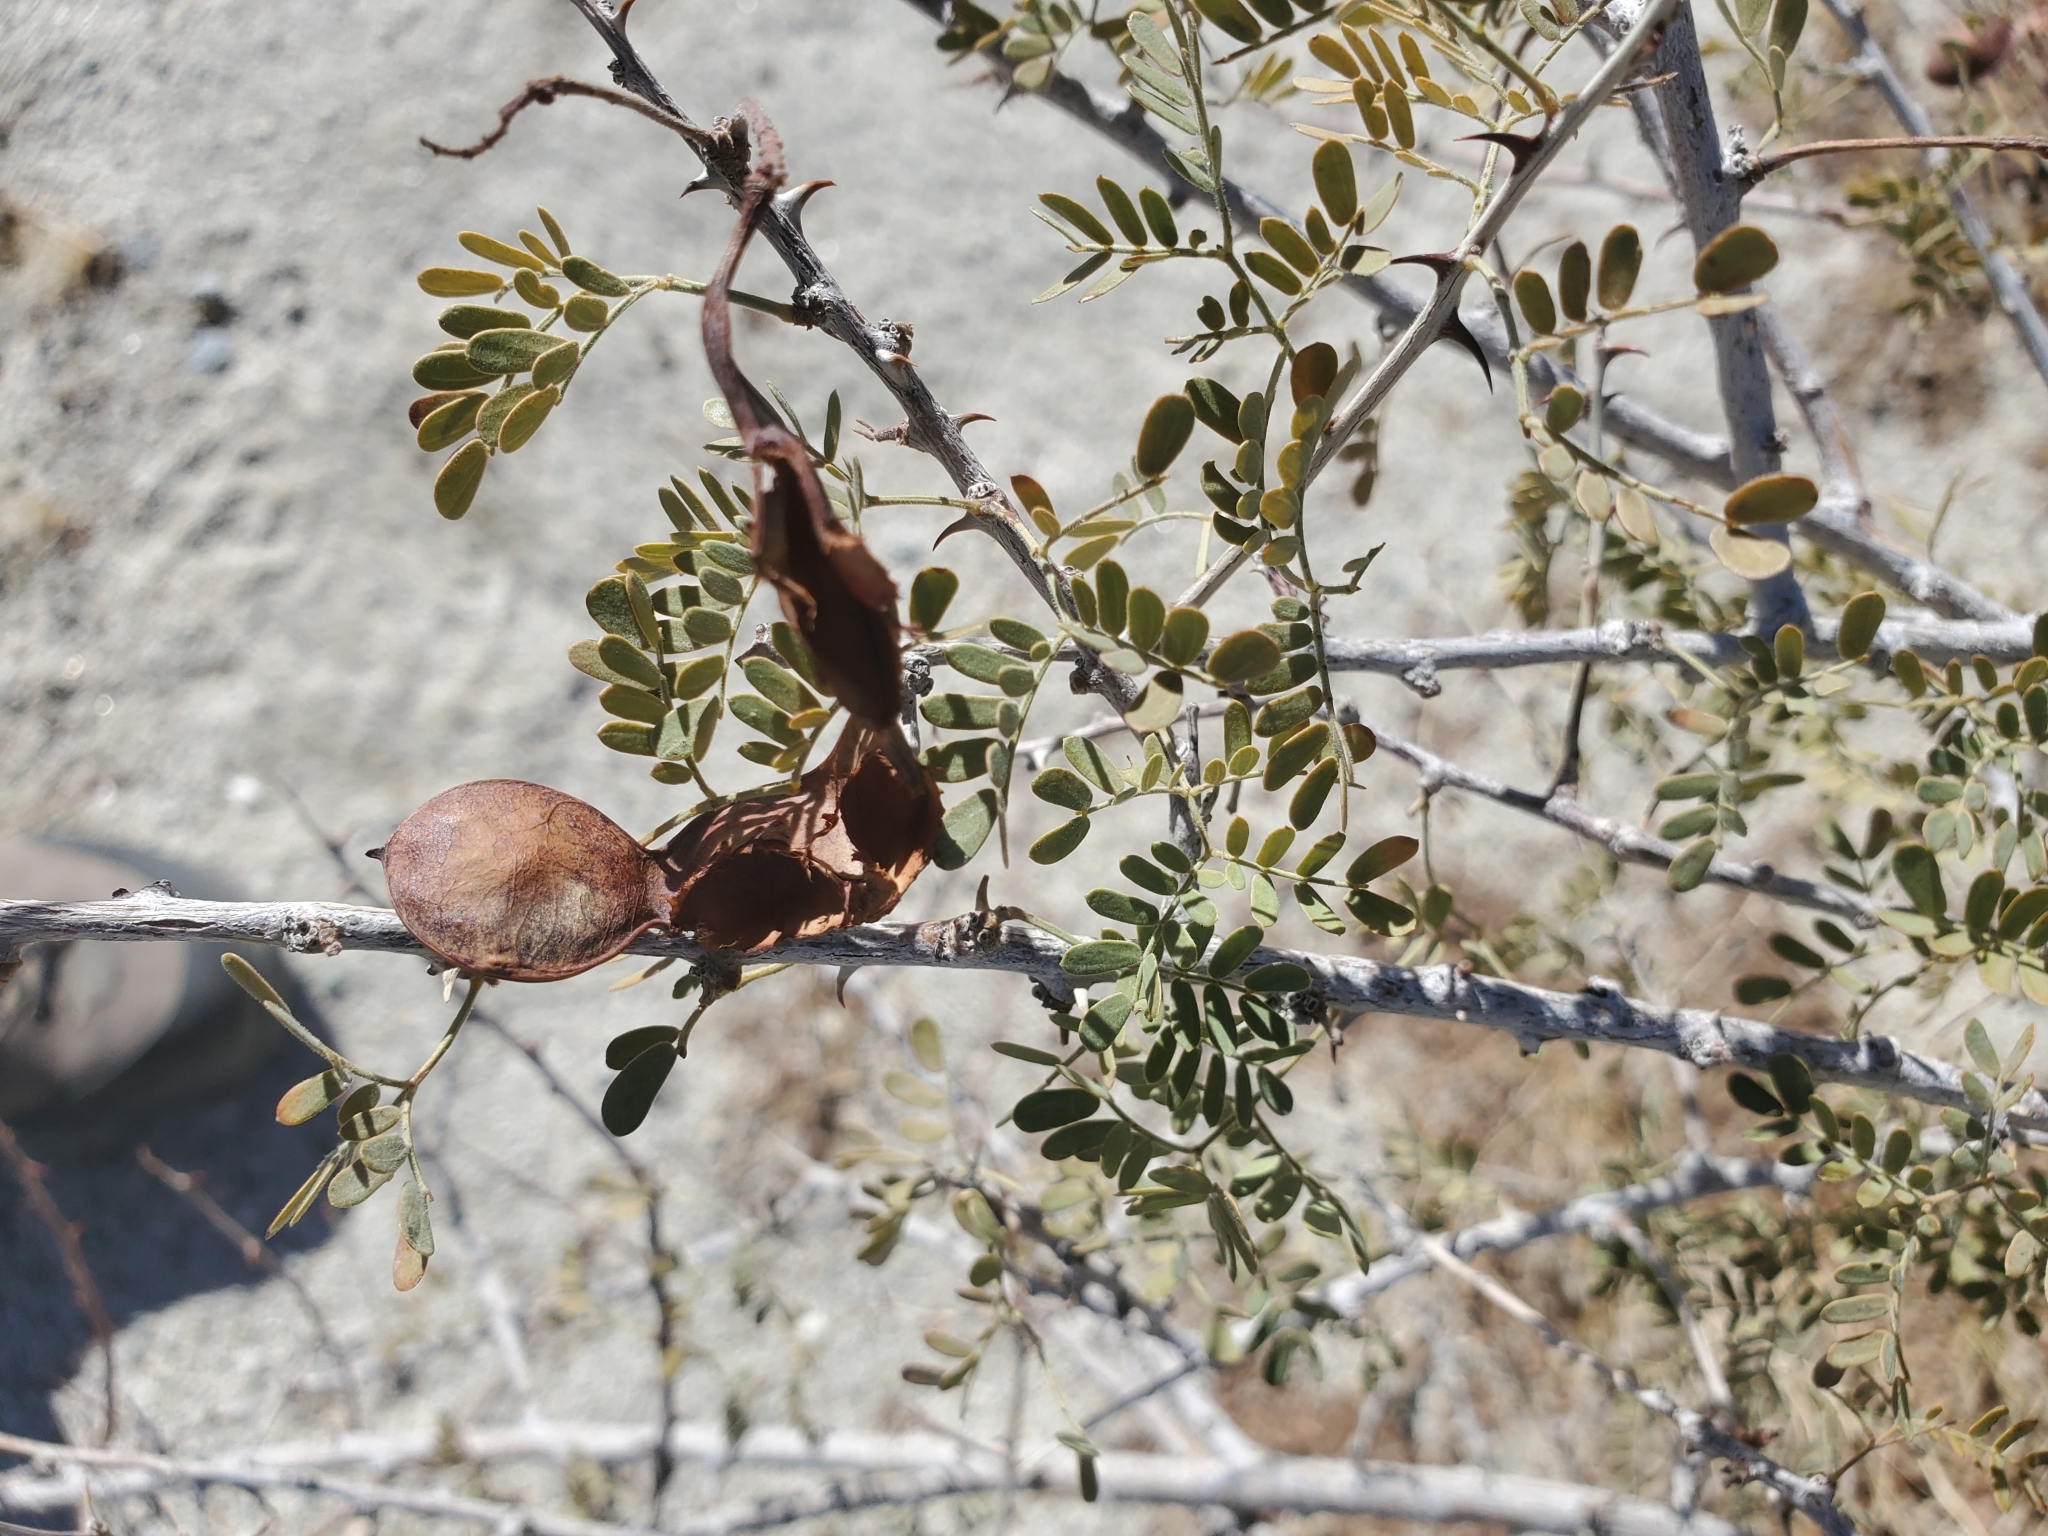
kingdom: Plantae
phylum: Tracheophyta
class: Magnoliopsida
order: Fabales
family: Fabaceae
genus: Senegalia
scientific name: Senegalia greggii
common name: Texas-mimosa
